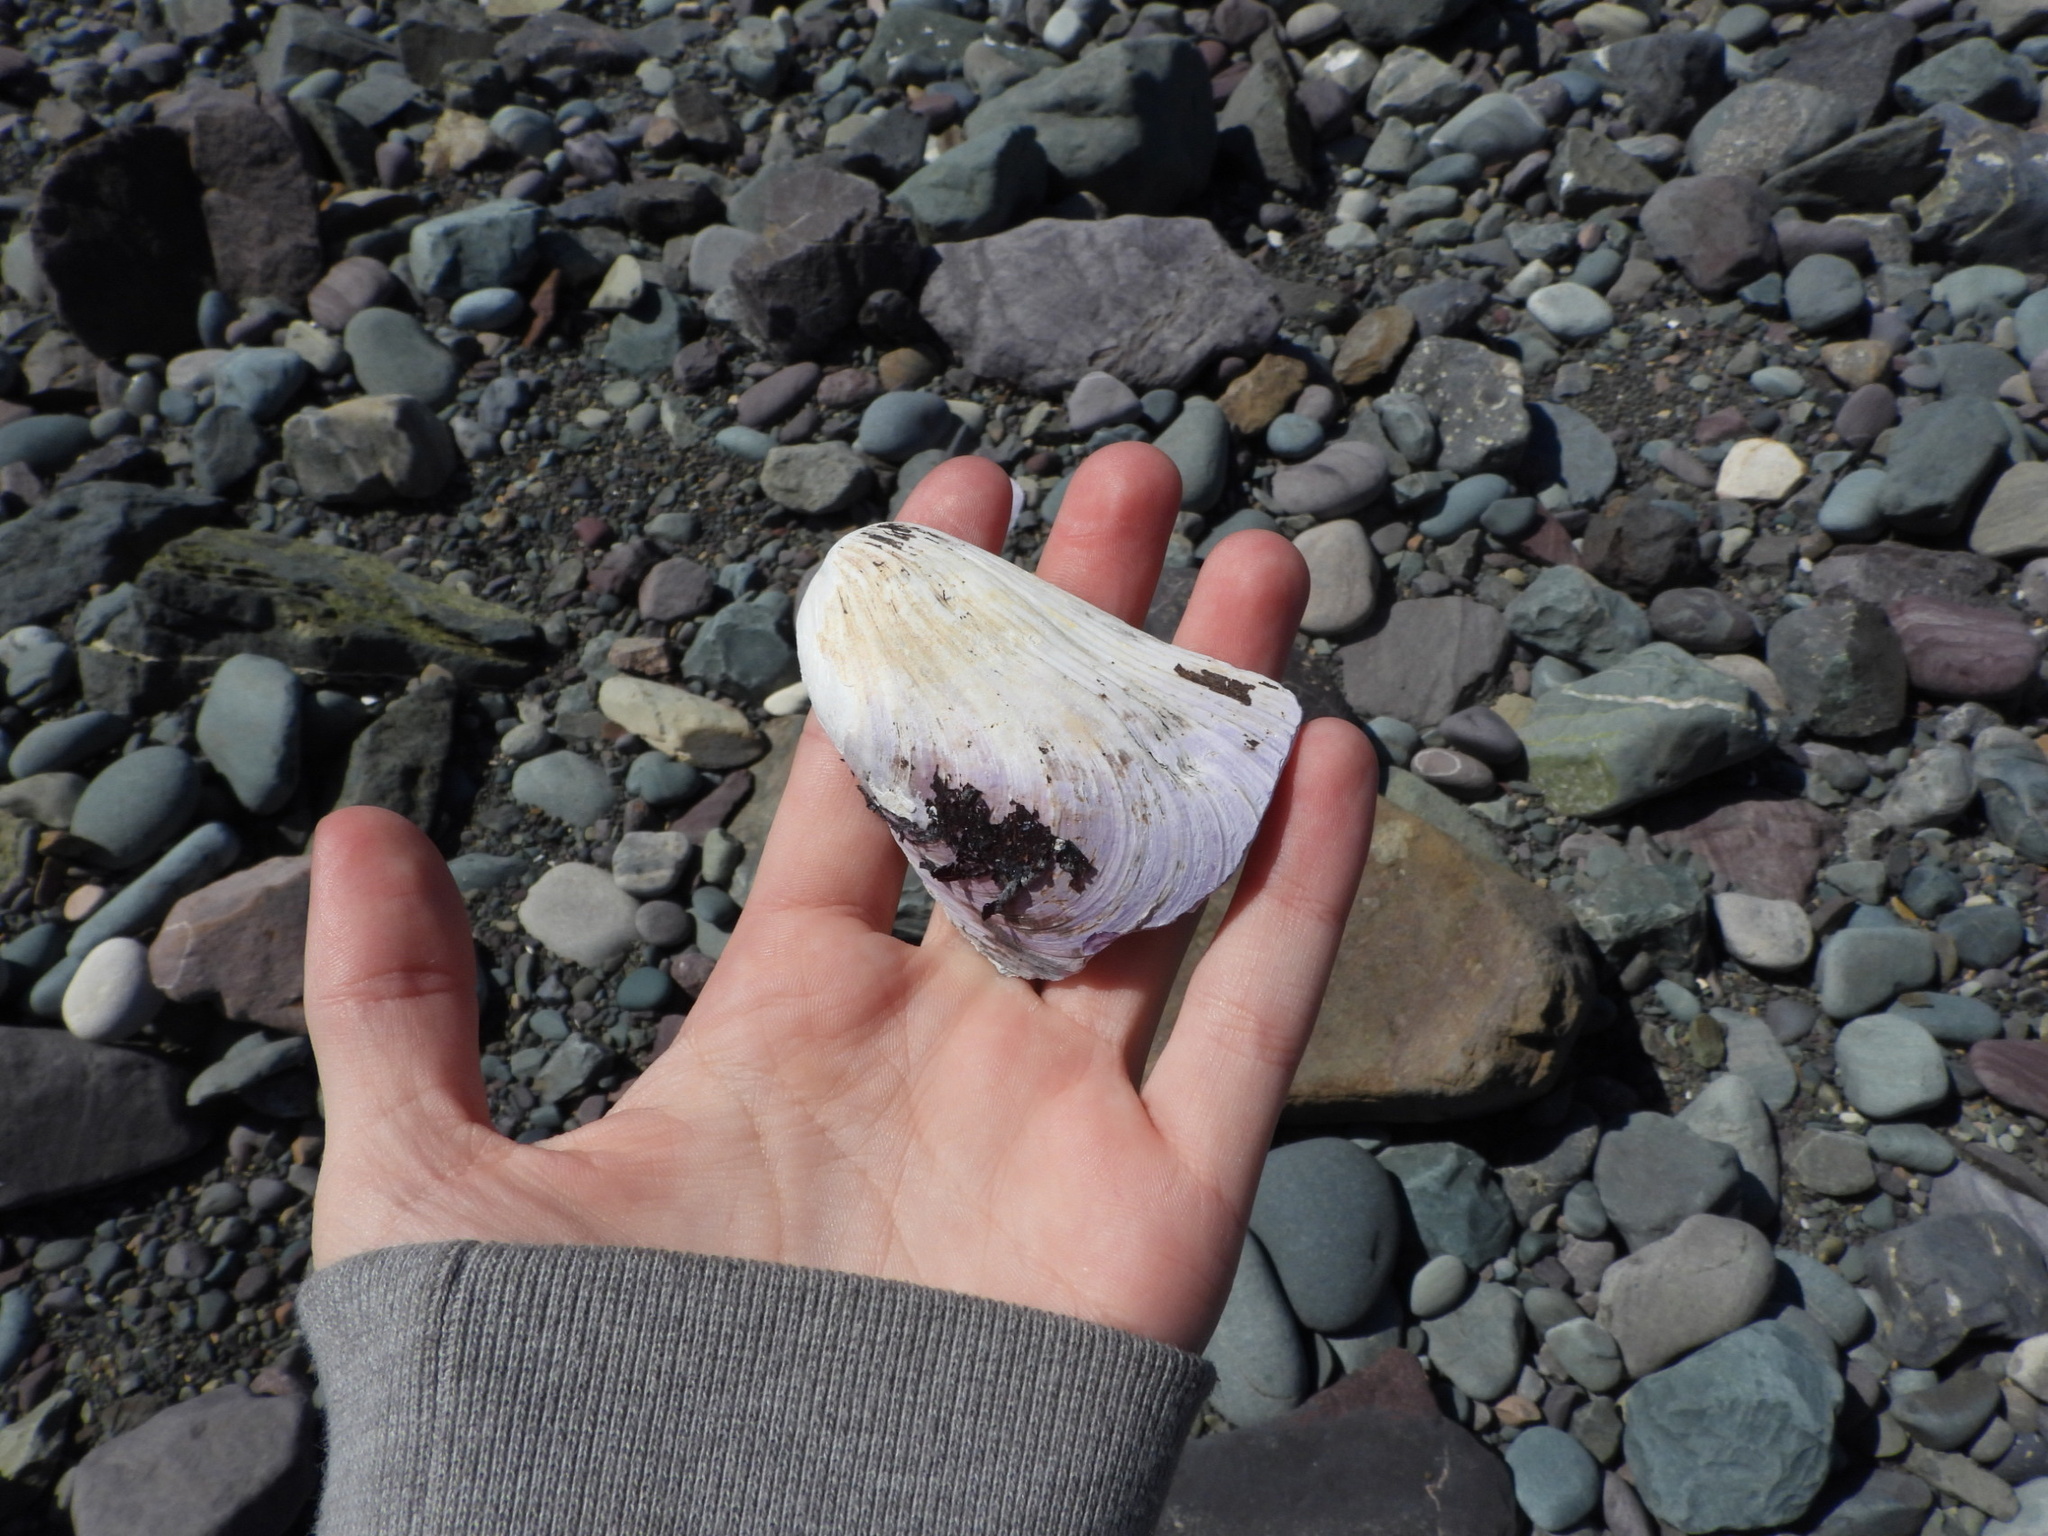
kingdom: Animalia
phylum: Mollusca
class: Bivalvia
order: Mytilida
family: Mytilidae
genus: Modiolus
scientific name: Modiolus modiolus
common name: Horse-mussel
